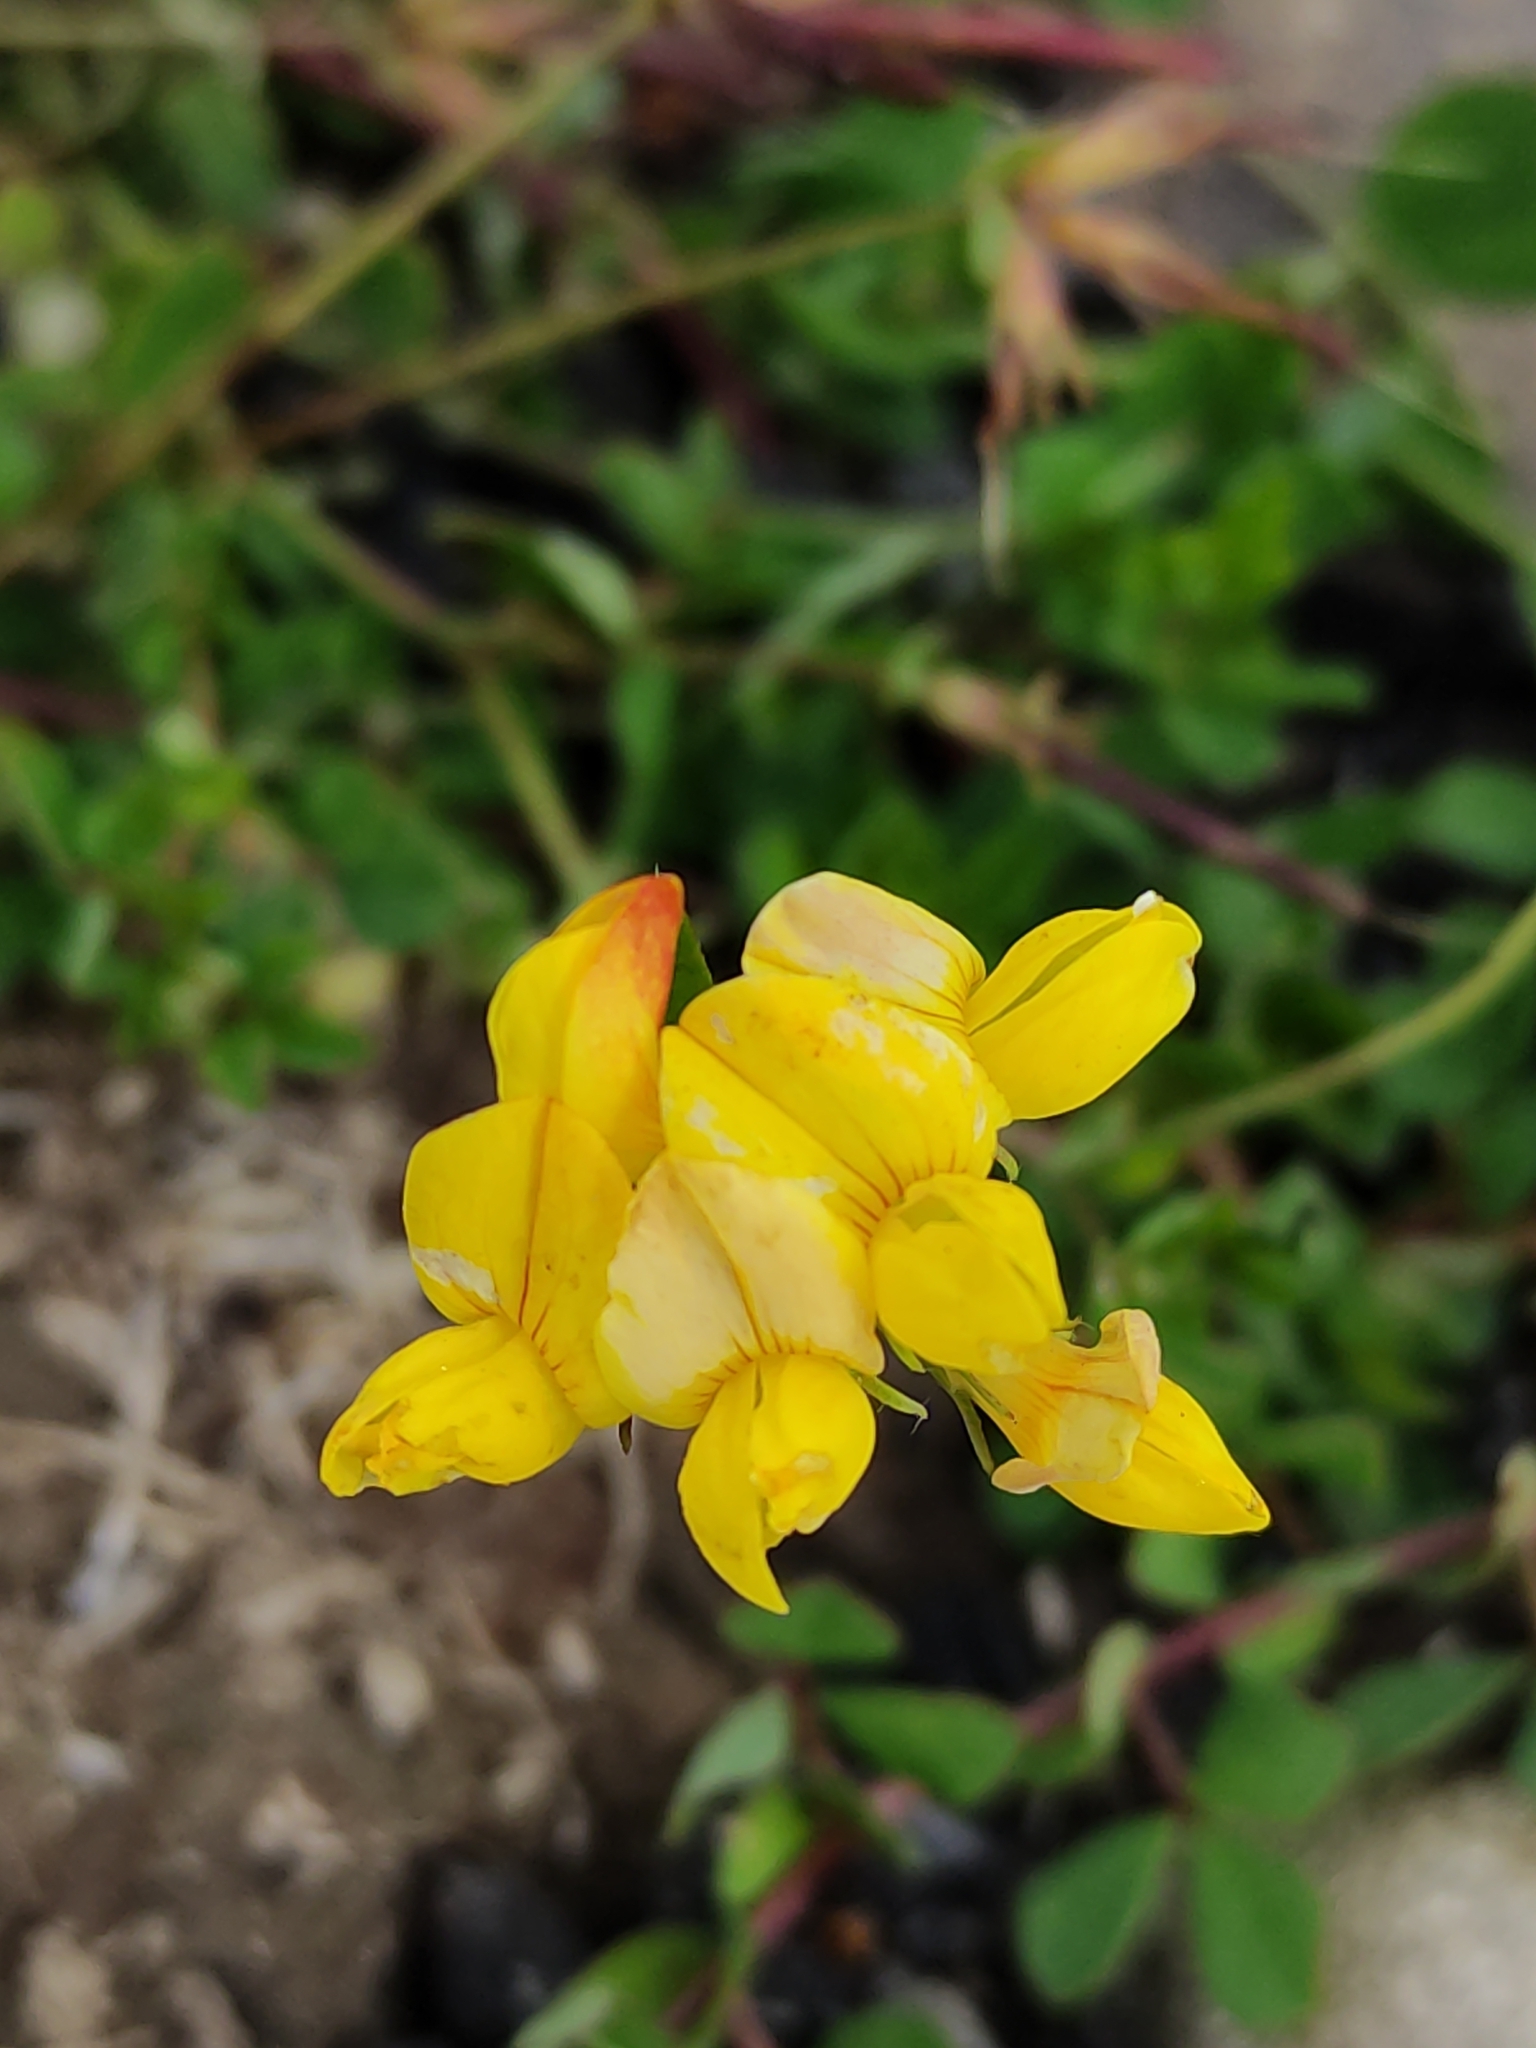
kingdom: Plantae
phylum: Tracheophyta
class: Magnoliopsida
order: Fabales
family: Fabaceae
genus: Lotus
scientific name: Lotus pedunculatus
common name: Greater birdsfoot-trefoil
